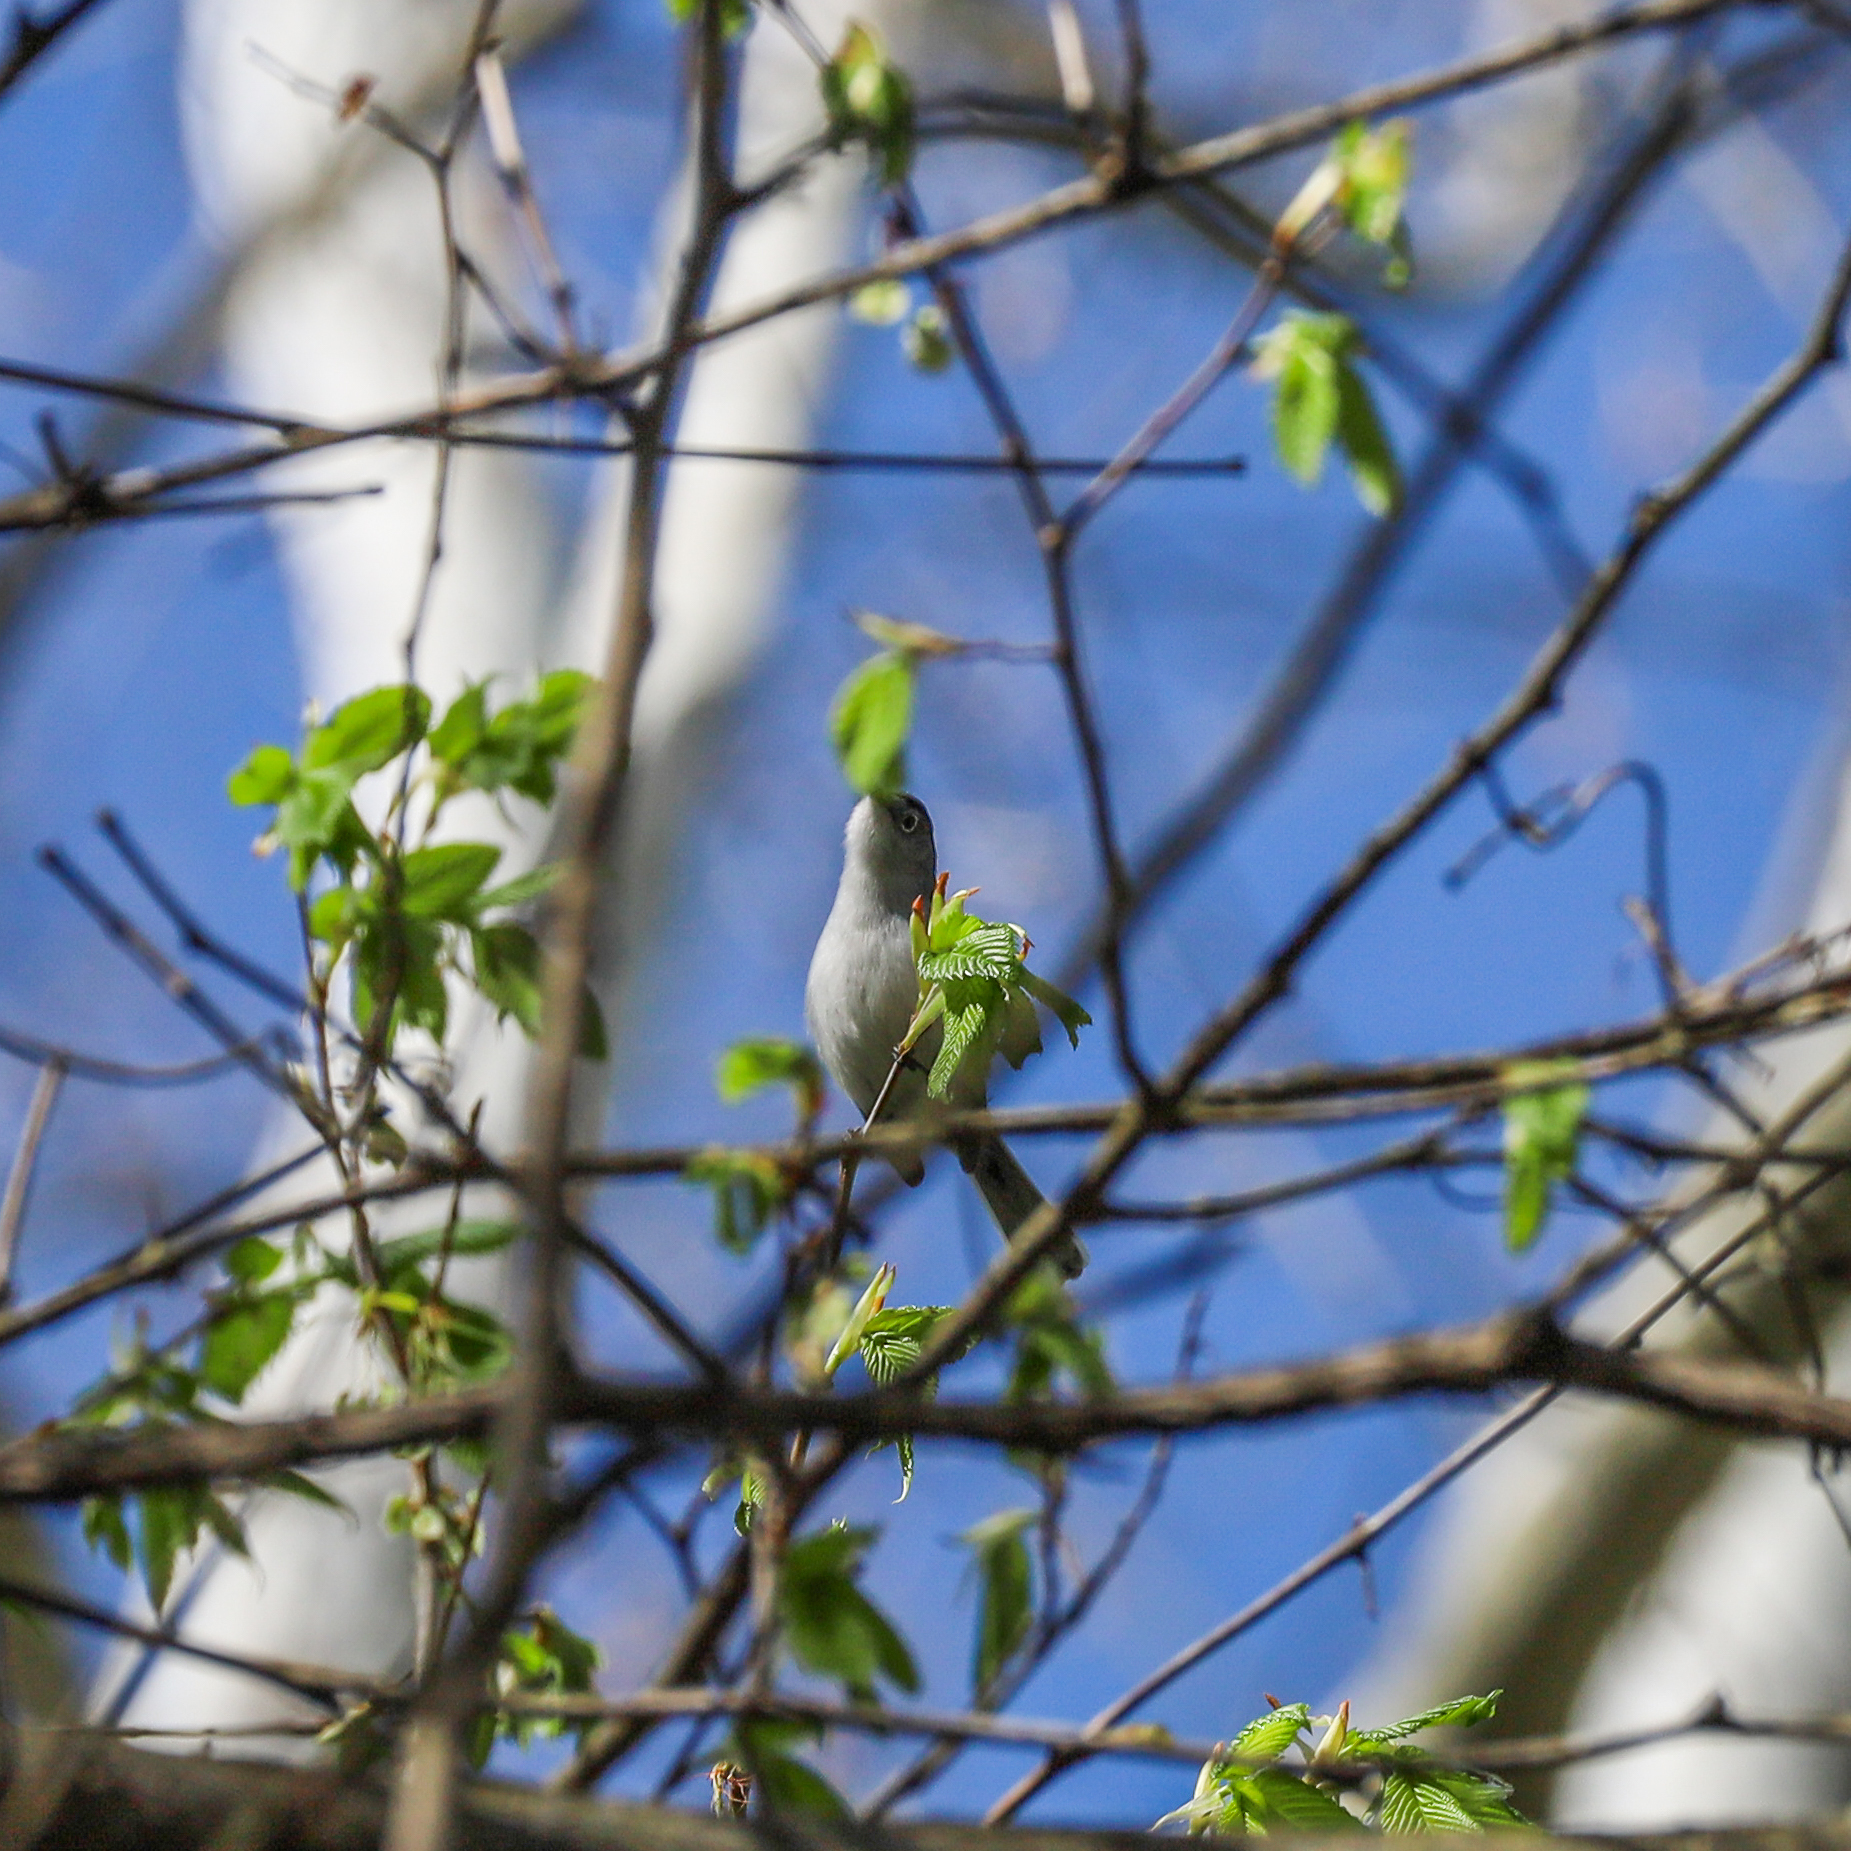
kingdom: Animalia
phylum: Chordata
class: Aves
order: Passeriformes
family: Polioptilidae
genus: Polioptila
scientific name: Polioptila caerulea
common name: Blue-gray gnatcatcher
